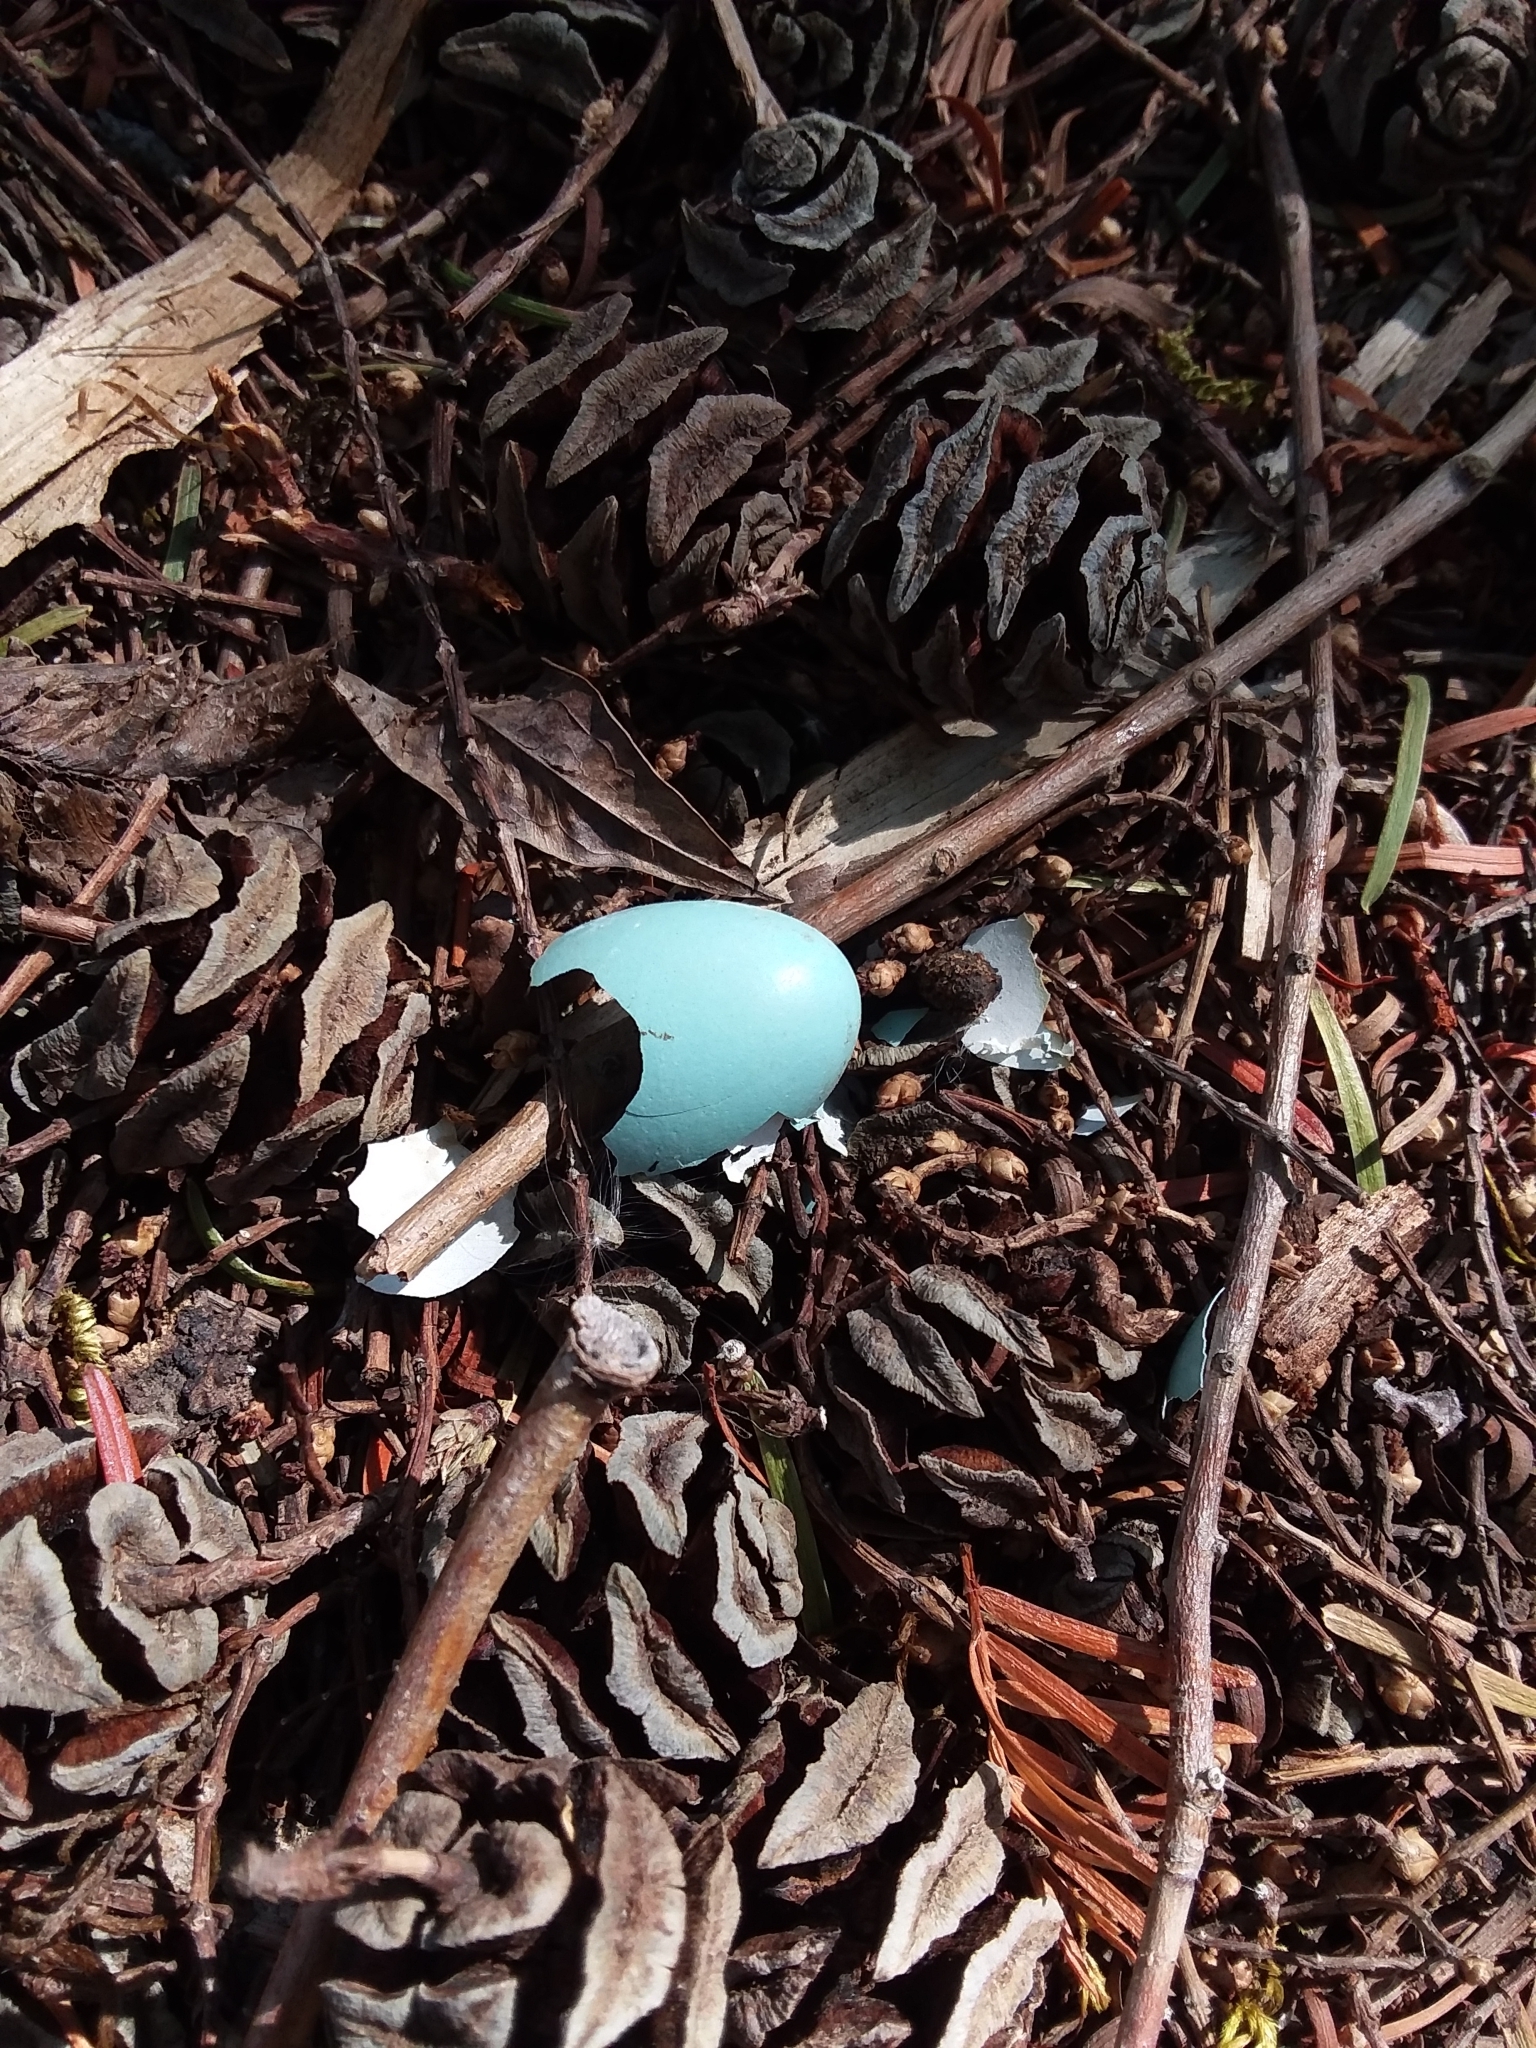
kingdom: Animalia
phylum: Chordata
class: Aves
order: Passeriformes
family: Turdidae
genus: Turdus
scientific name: Turdus migratorius
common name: American robin
